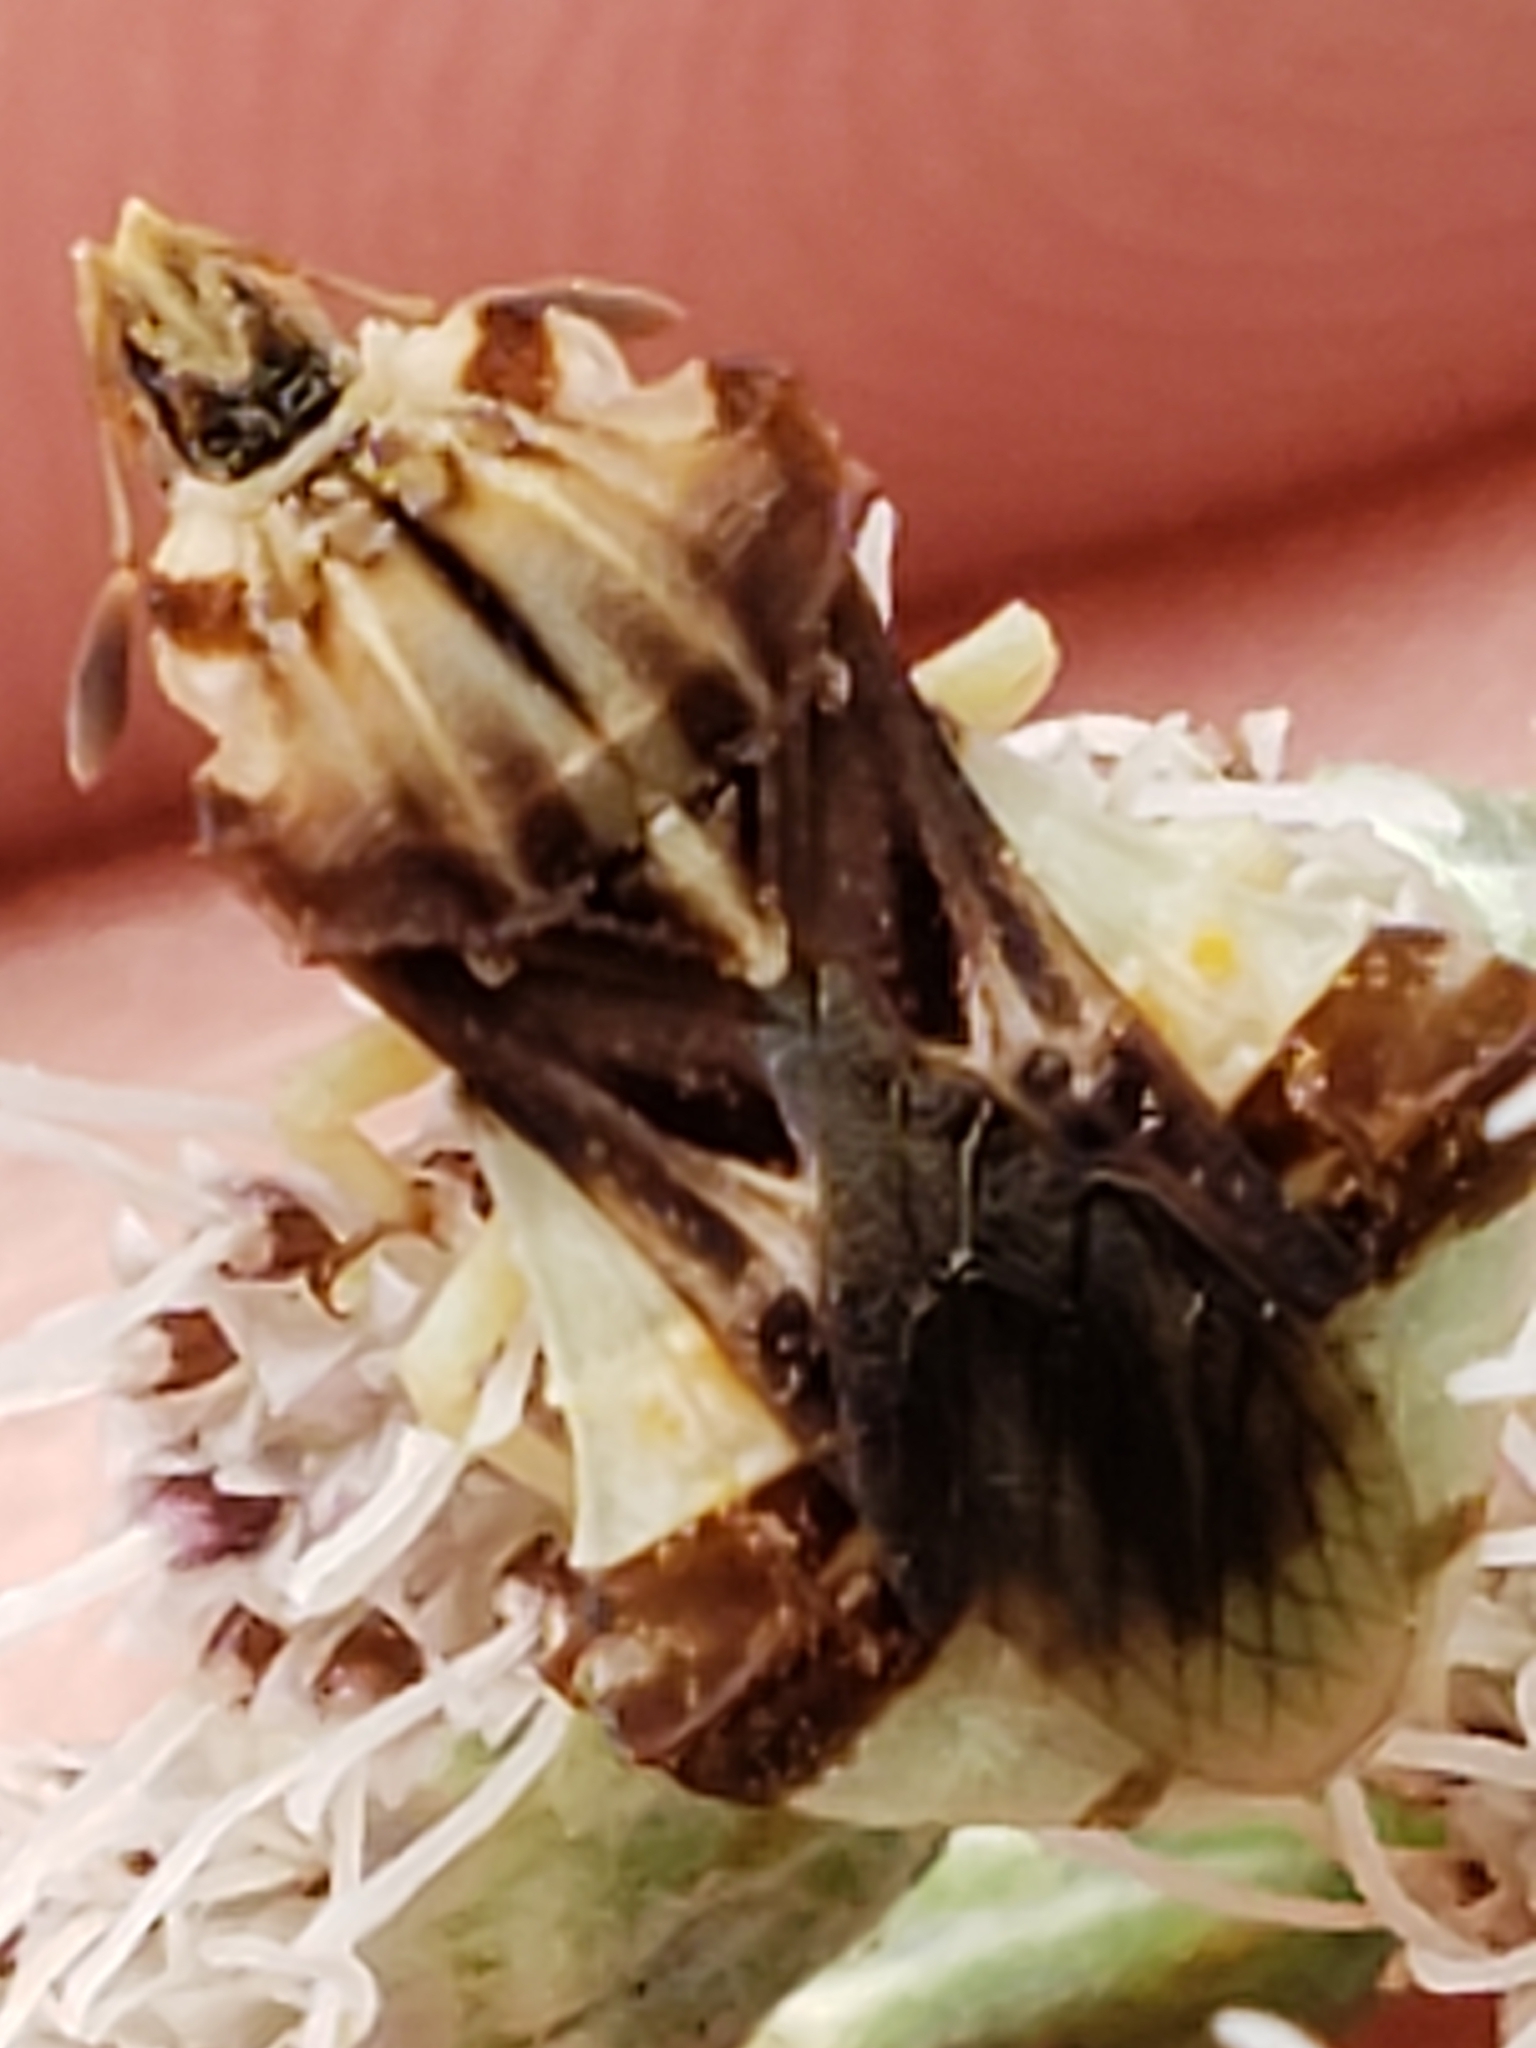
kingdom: Animalia
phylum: Arthropoda
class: Insecta
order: Hemiptera
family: Reduviidae
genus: Phymata
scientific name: Phymata fasciata
